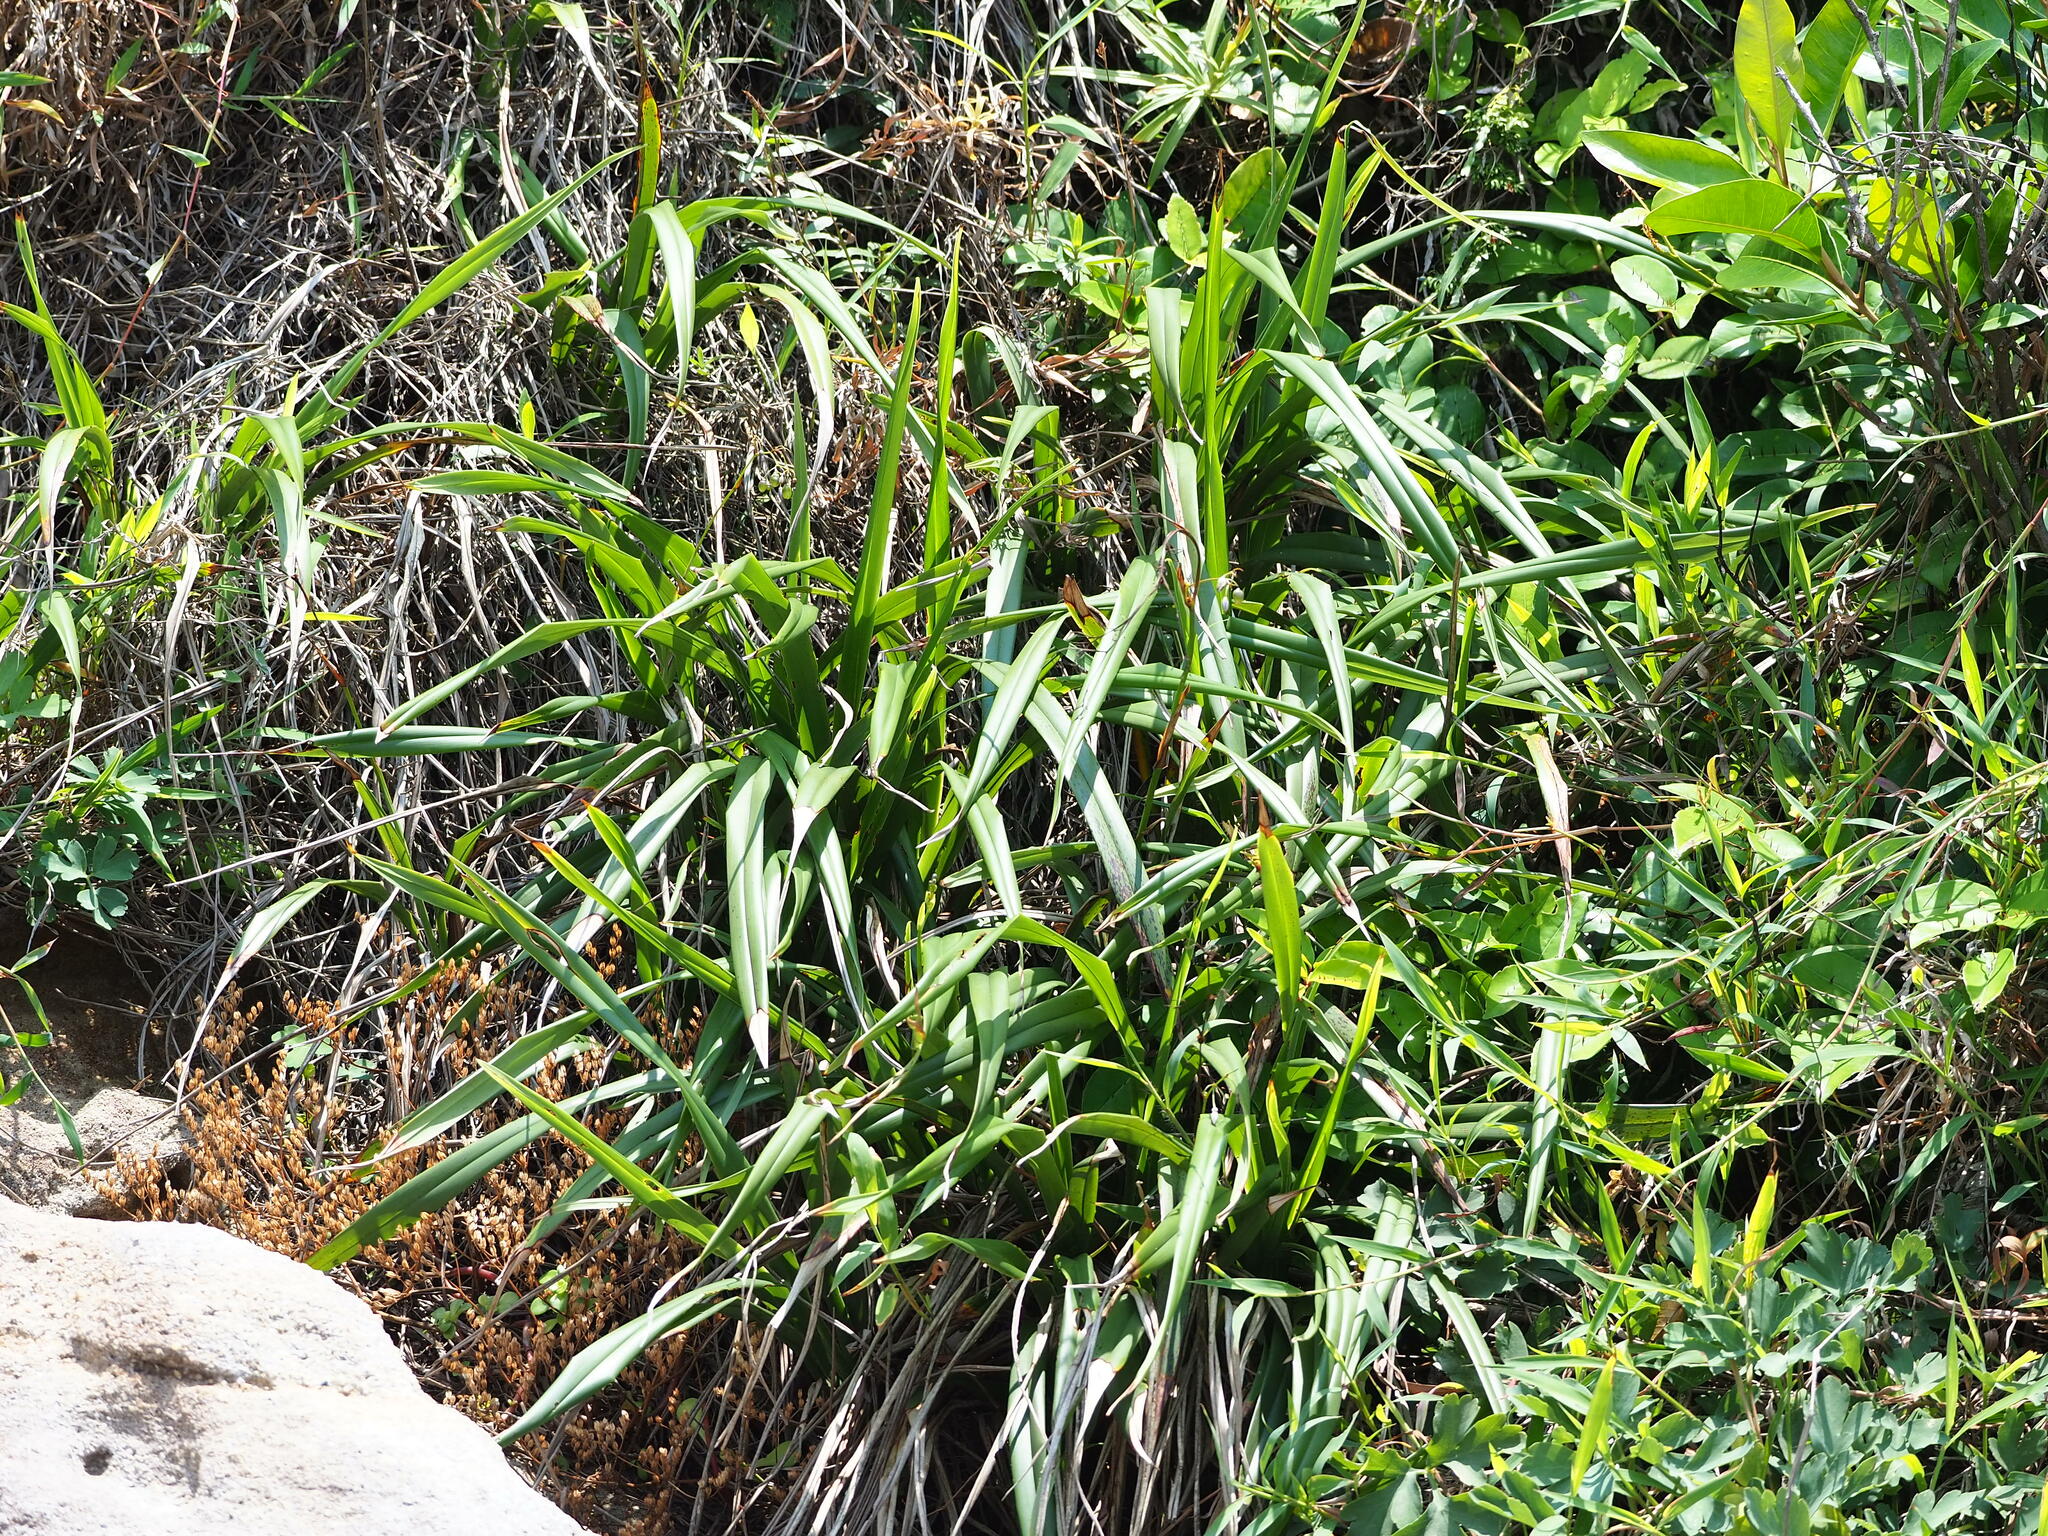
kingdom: Plantae
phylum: Tracheophyta
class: Liliopsida
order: Asparagales
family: Asphodelaceae
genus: Dianella
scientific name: Dianella ensifolia
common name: New zealand lilyplant
